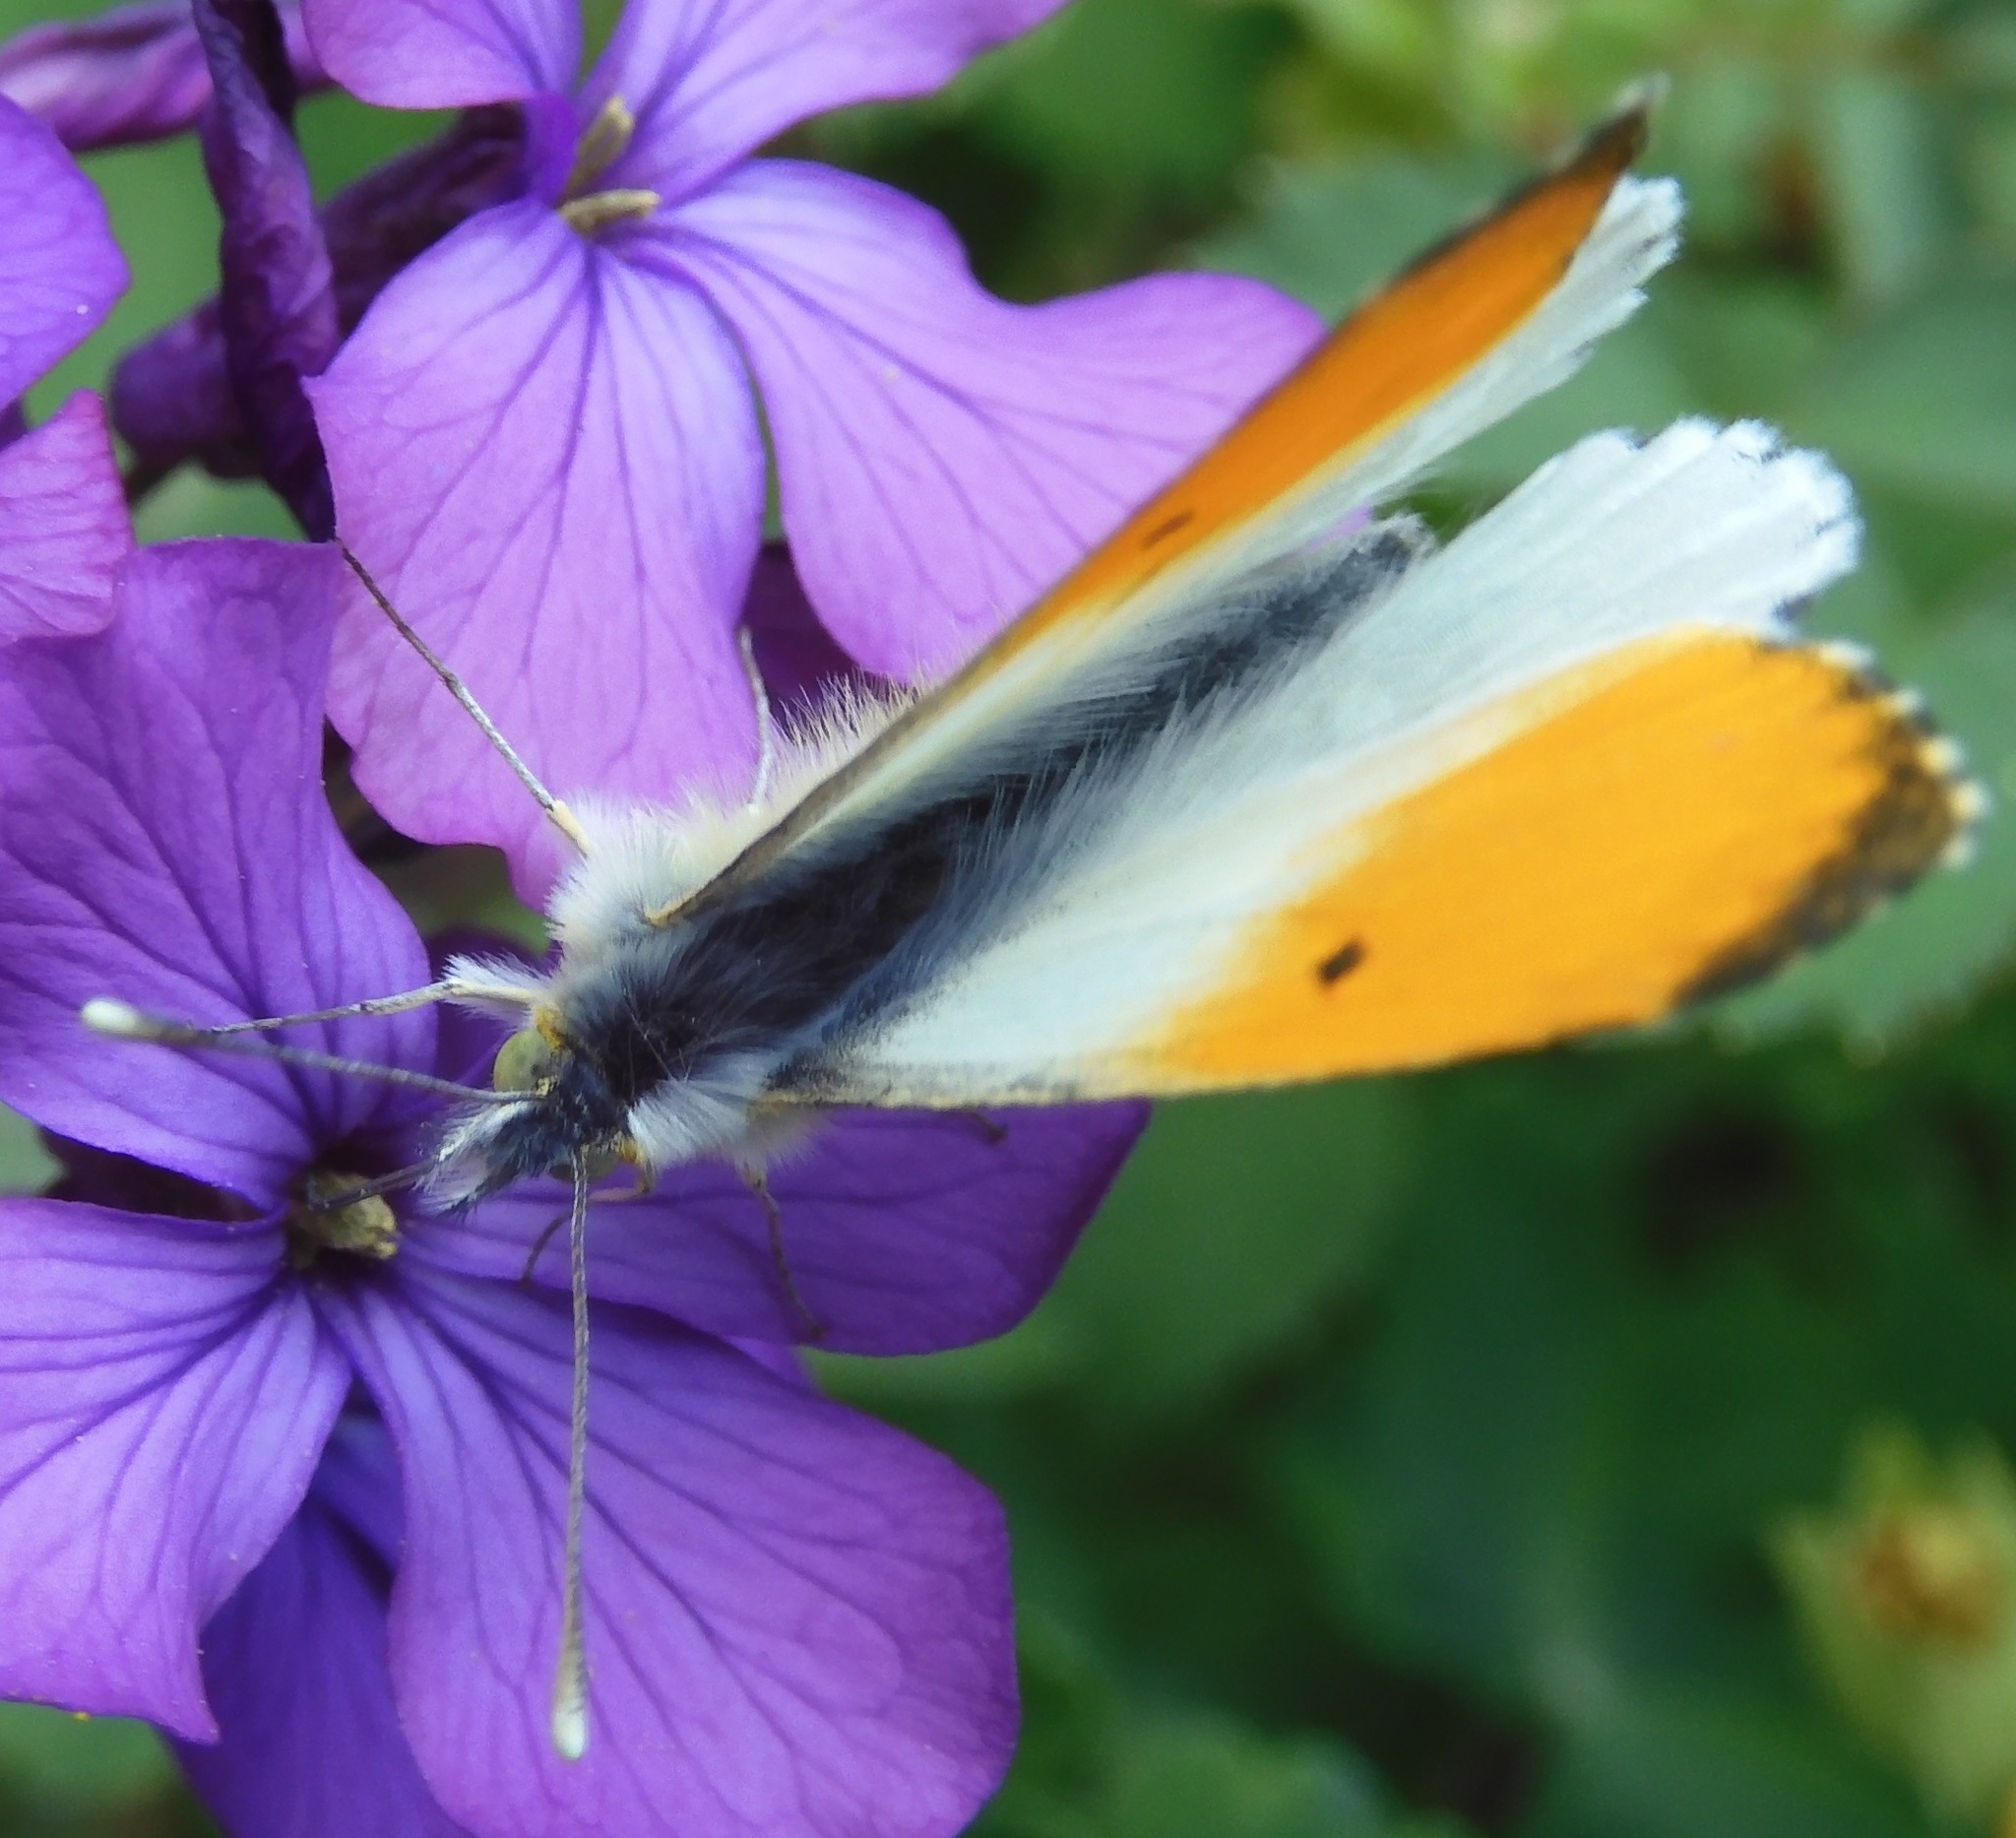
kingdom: Animalia
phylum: Arthropoda
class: Insecta
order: Lepidoptera
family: Pieridae
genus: Anthocharis
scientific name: Anthocharis cardamines
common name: Orange-tip
